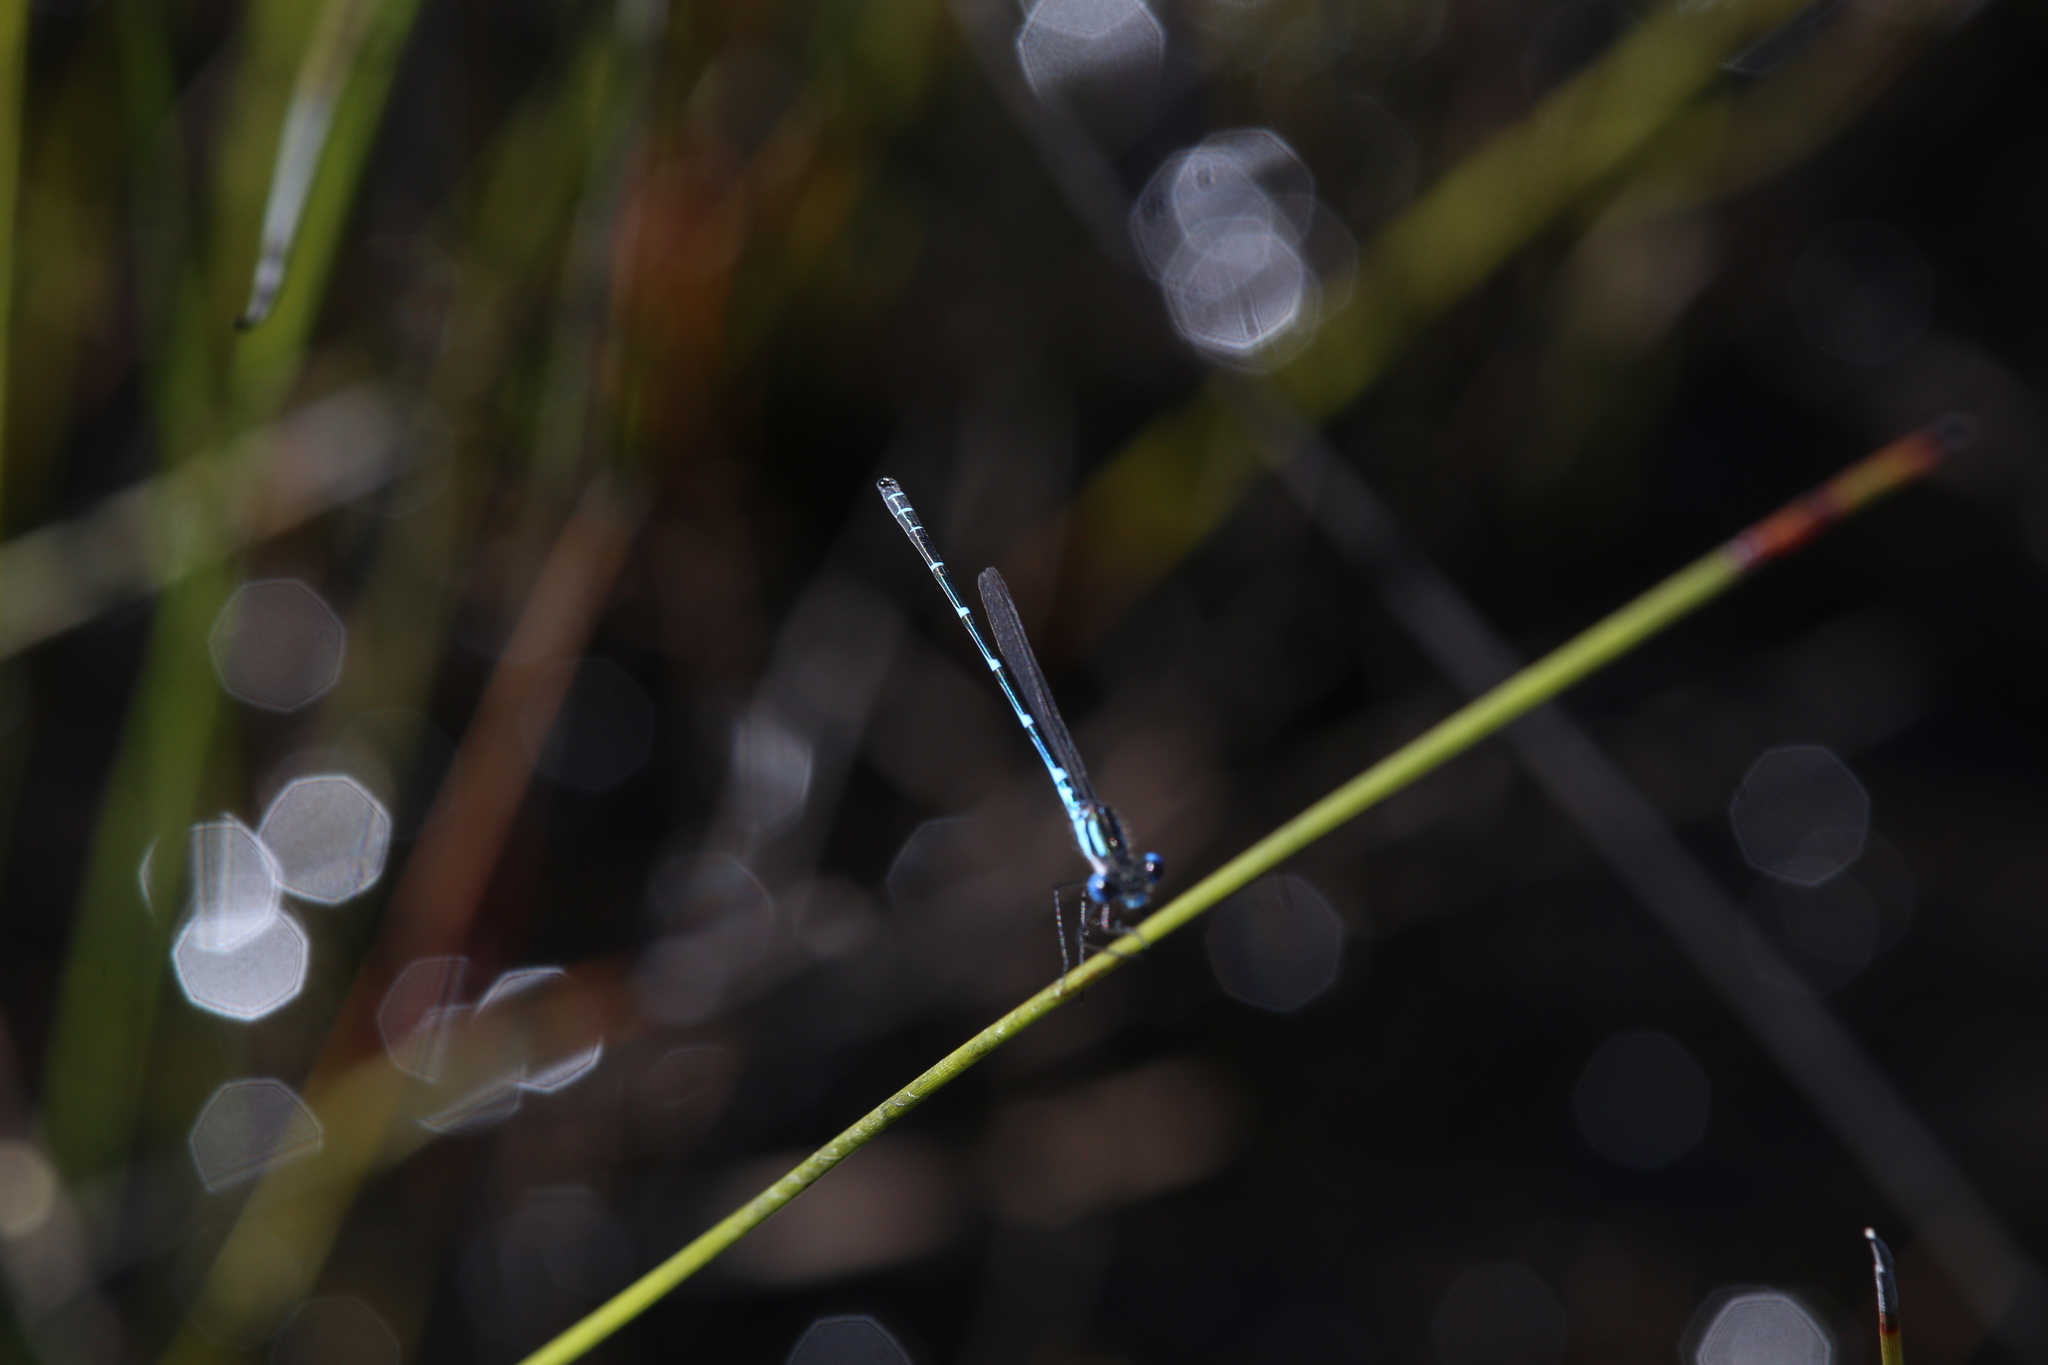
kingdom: Animalia
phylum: Arthropoda
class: Insecta
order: Odonata
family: Lestidae
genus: Austrolestes
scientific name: Austrolestes aleison
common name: Western ringtail
